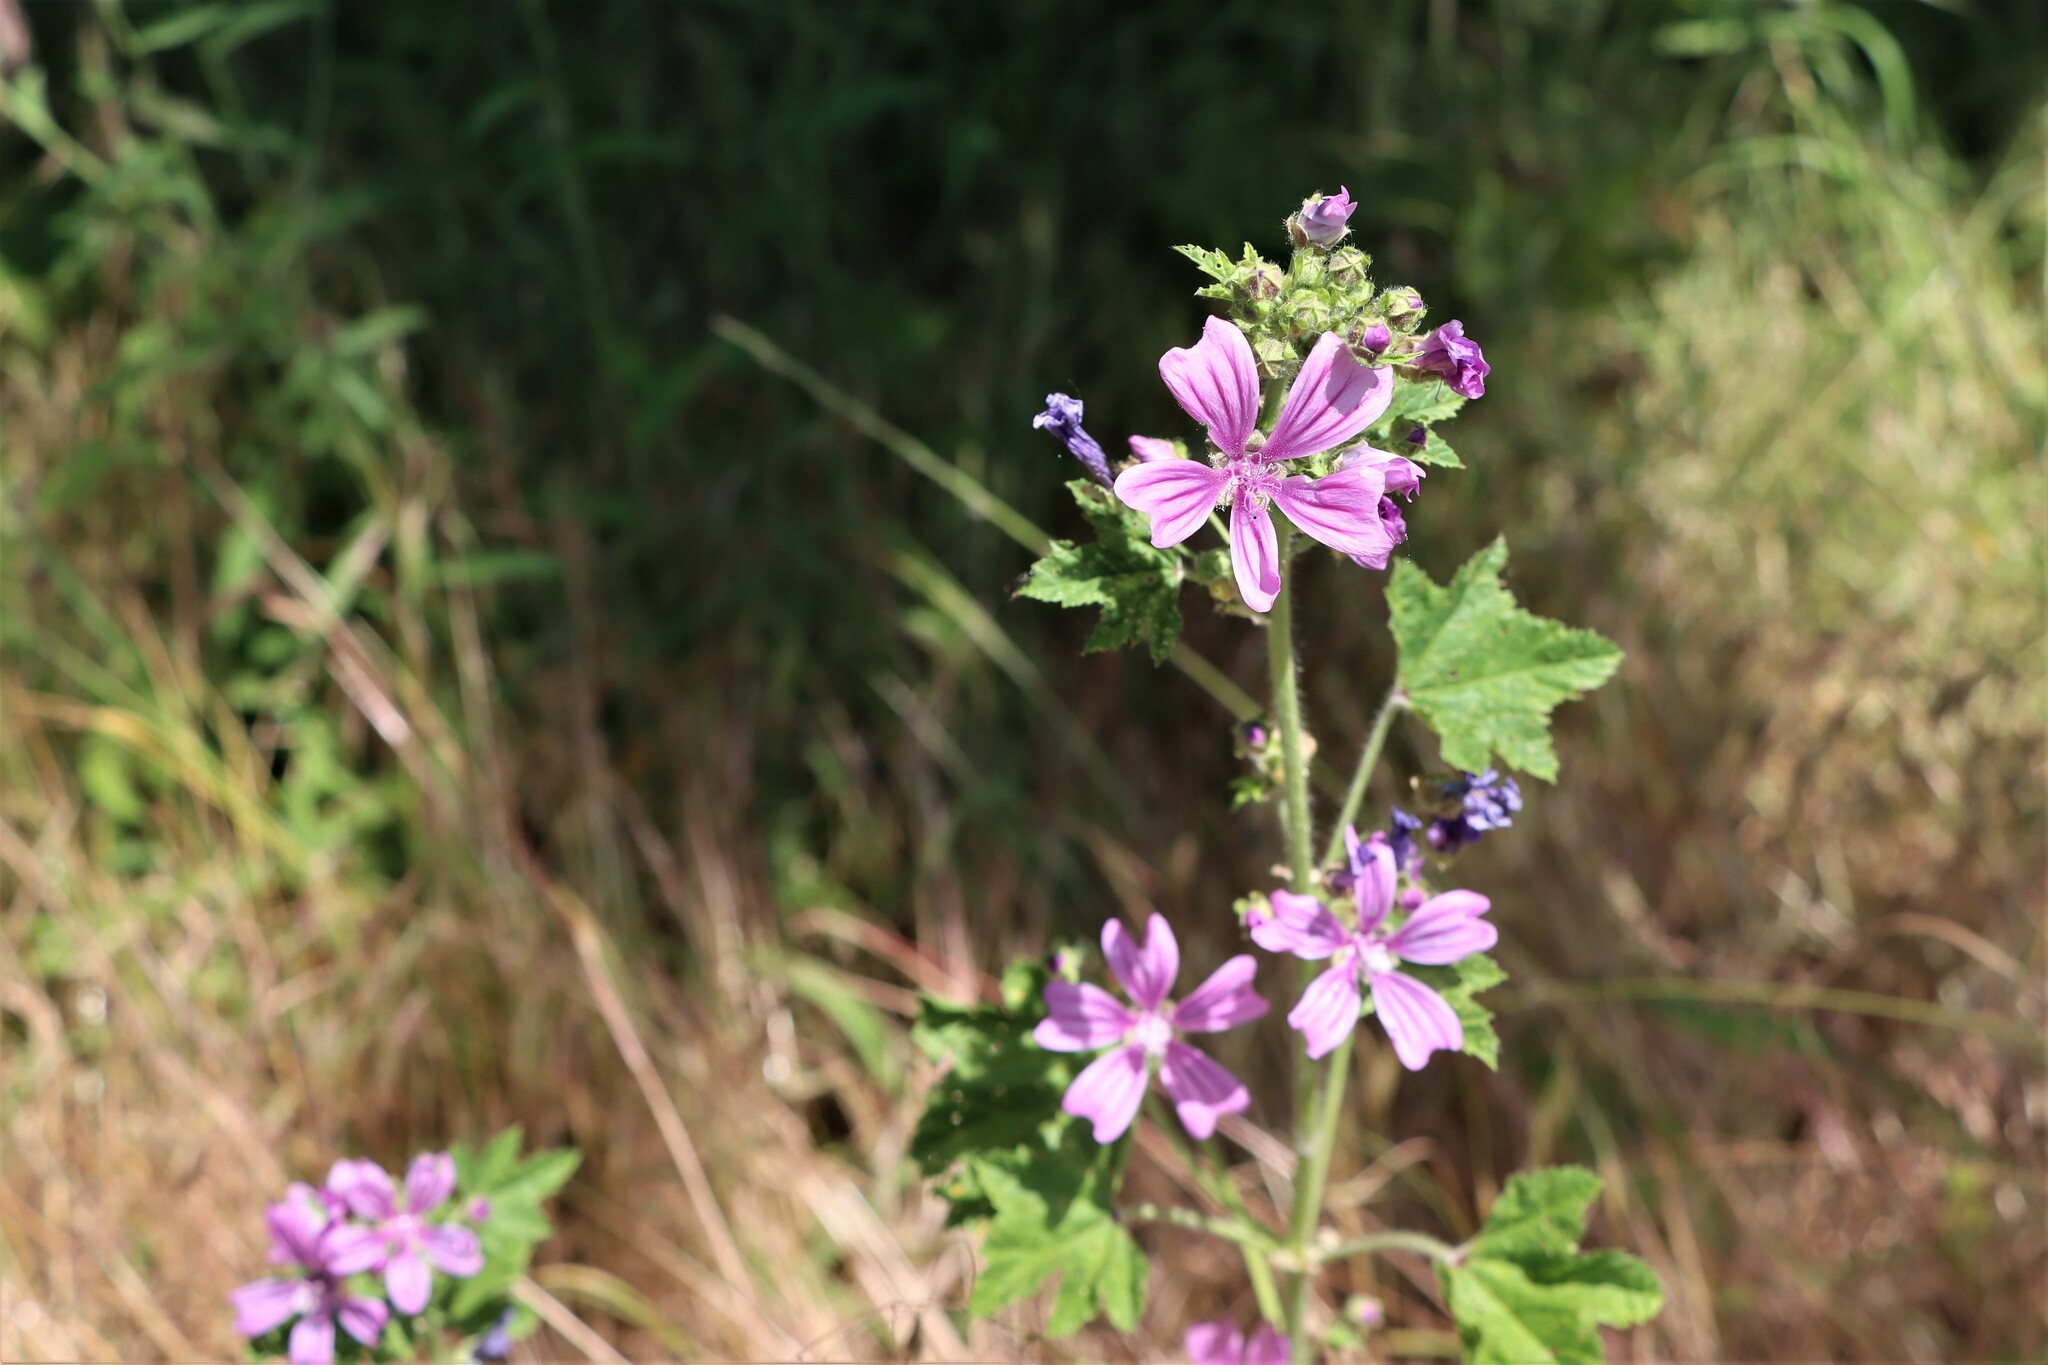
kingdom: Plantae
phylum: Tracheophyta
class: Magnoliopsida
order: Malvales
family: Malvaceae
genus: Malva
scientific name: Malva sylvestris
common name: Common mallow
